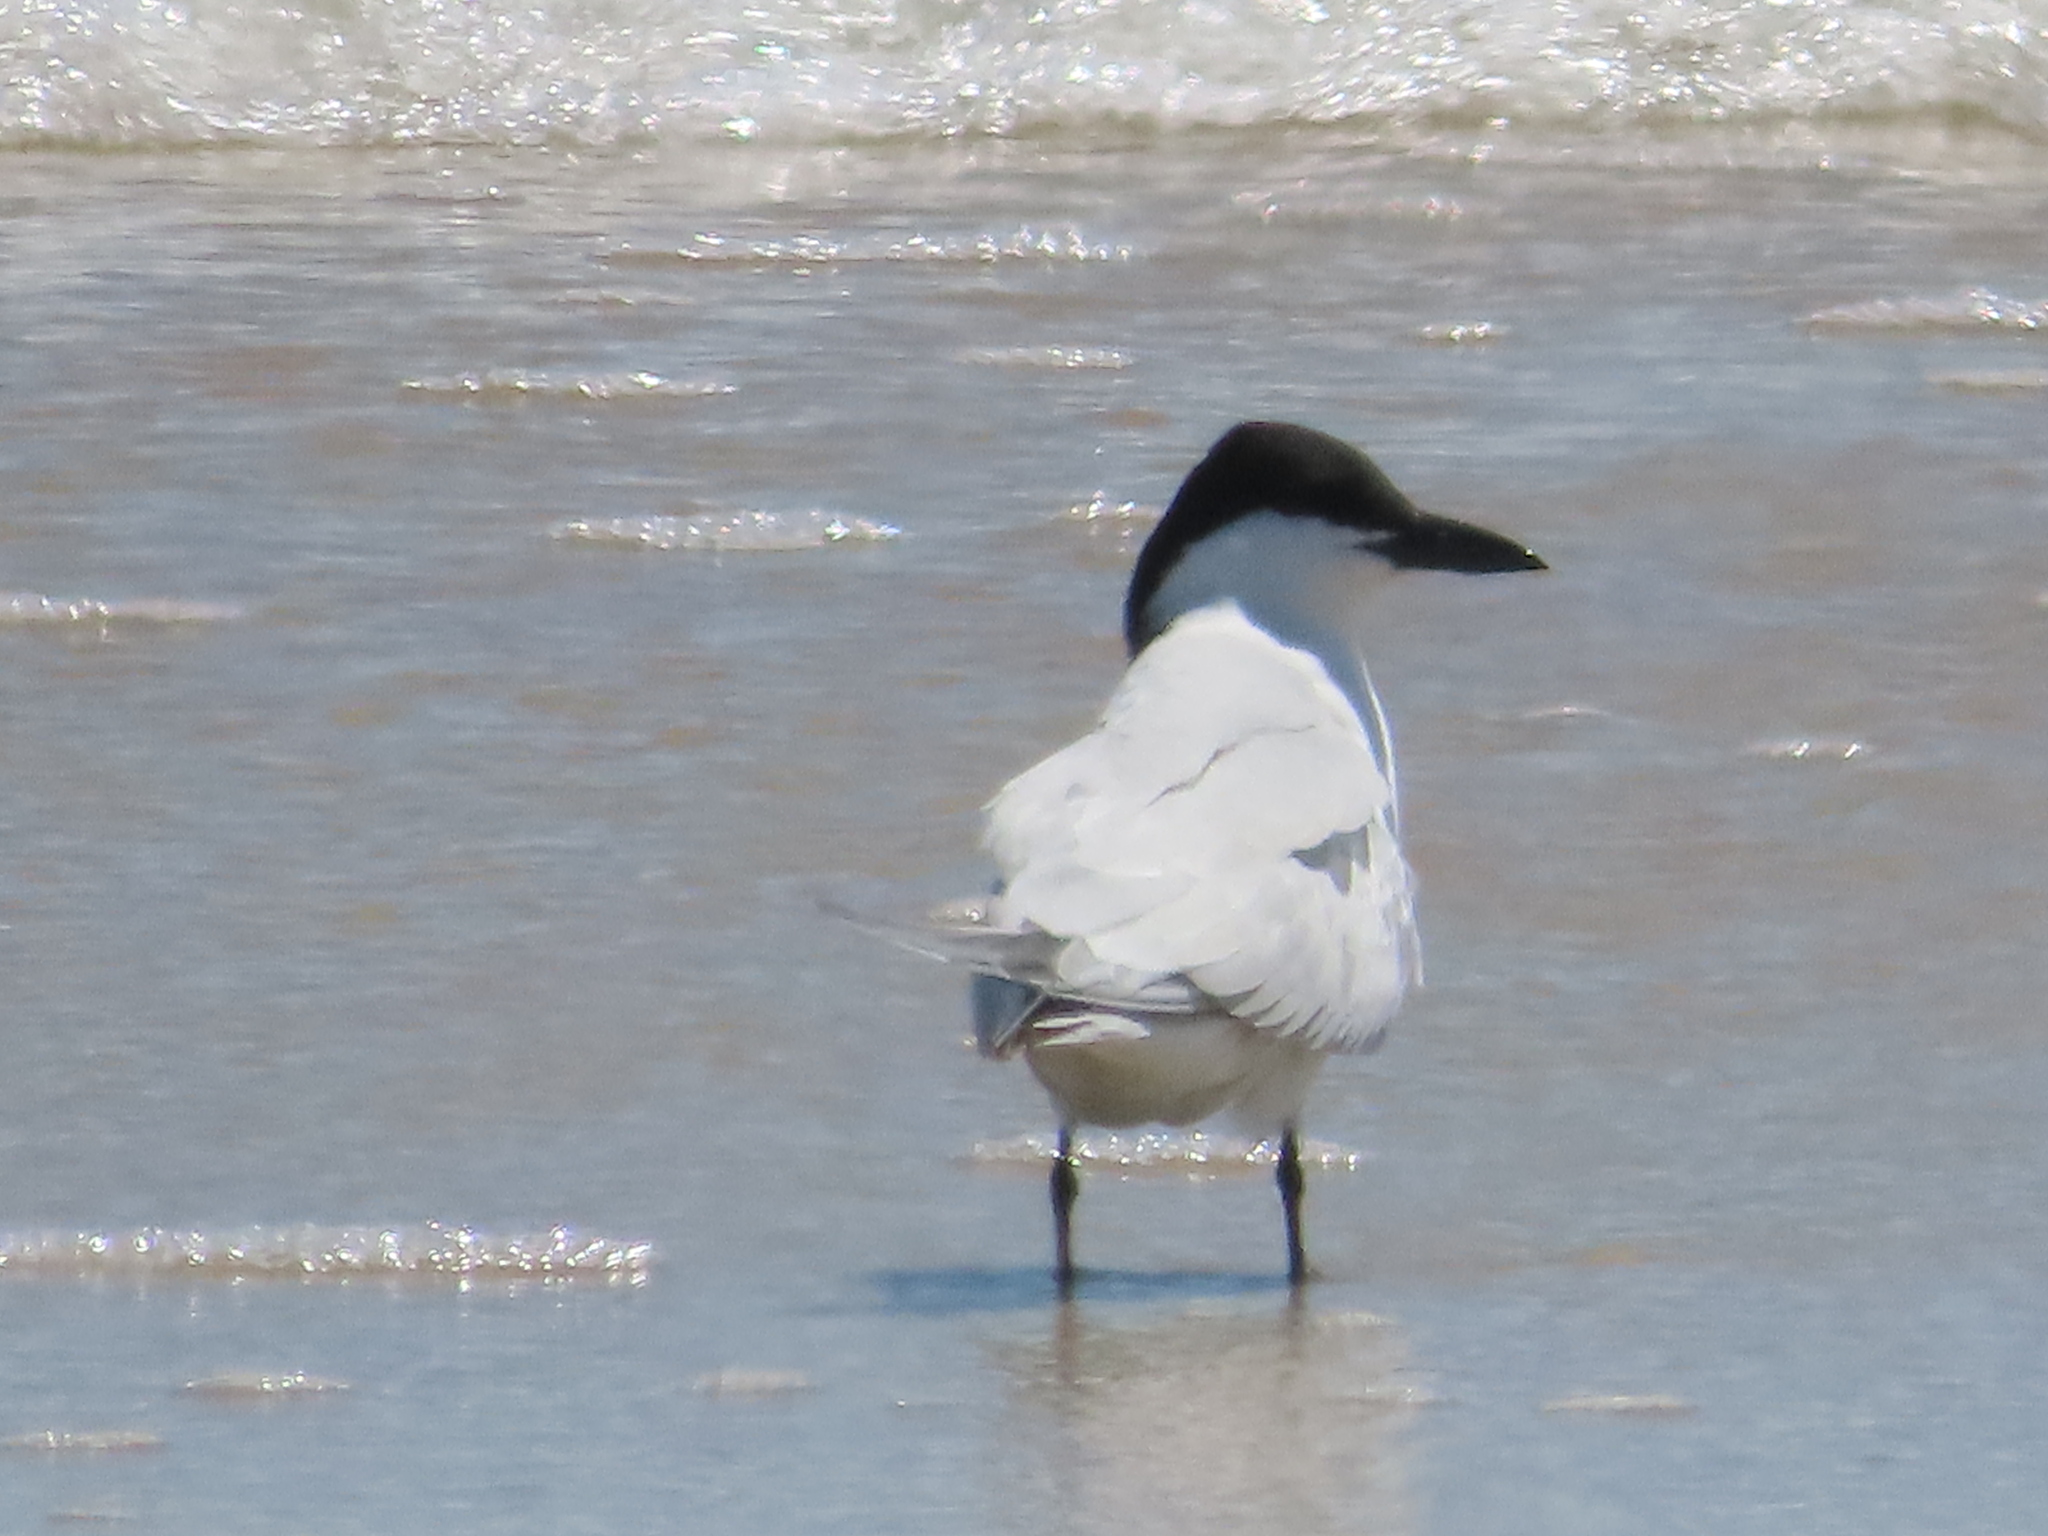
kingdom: Animalia
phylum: Chordata
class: Aves
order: Charadriiformes
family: Laridae
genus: Gelochelidon
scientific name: Gelochelidon nilotica
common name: Gull-billed tern
